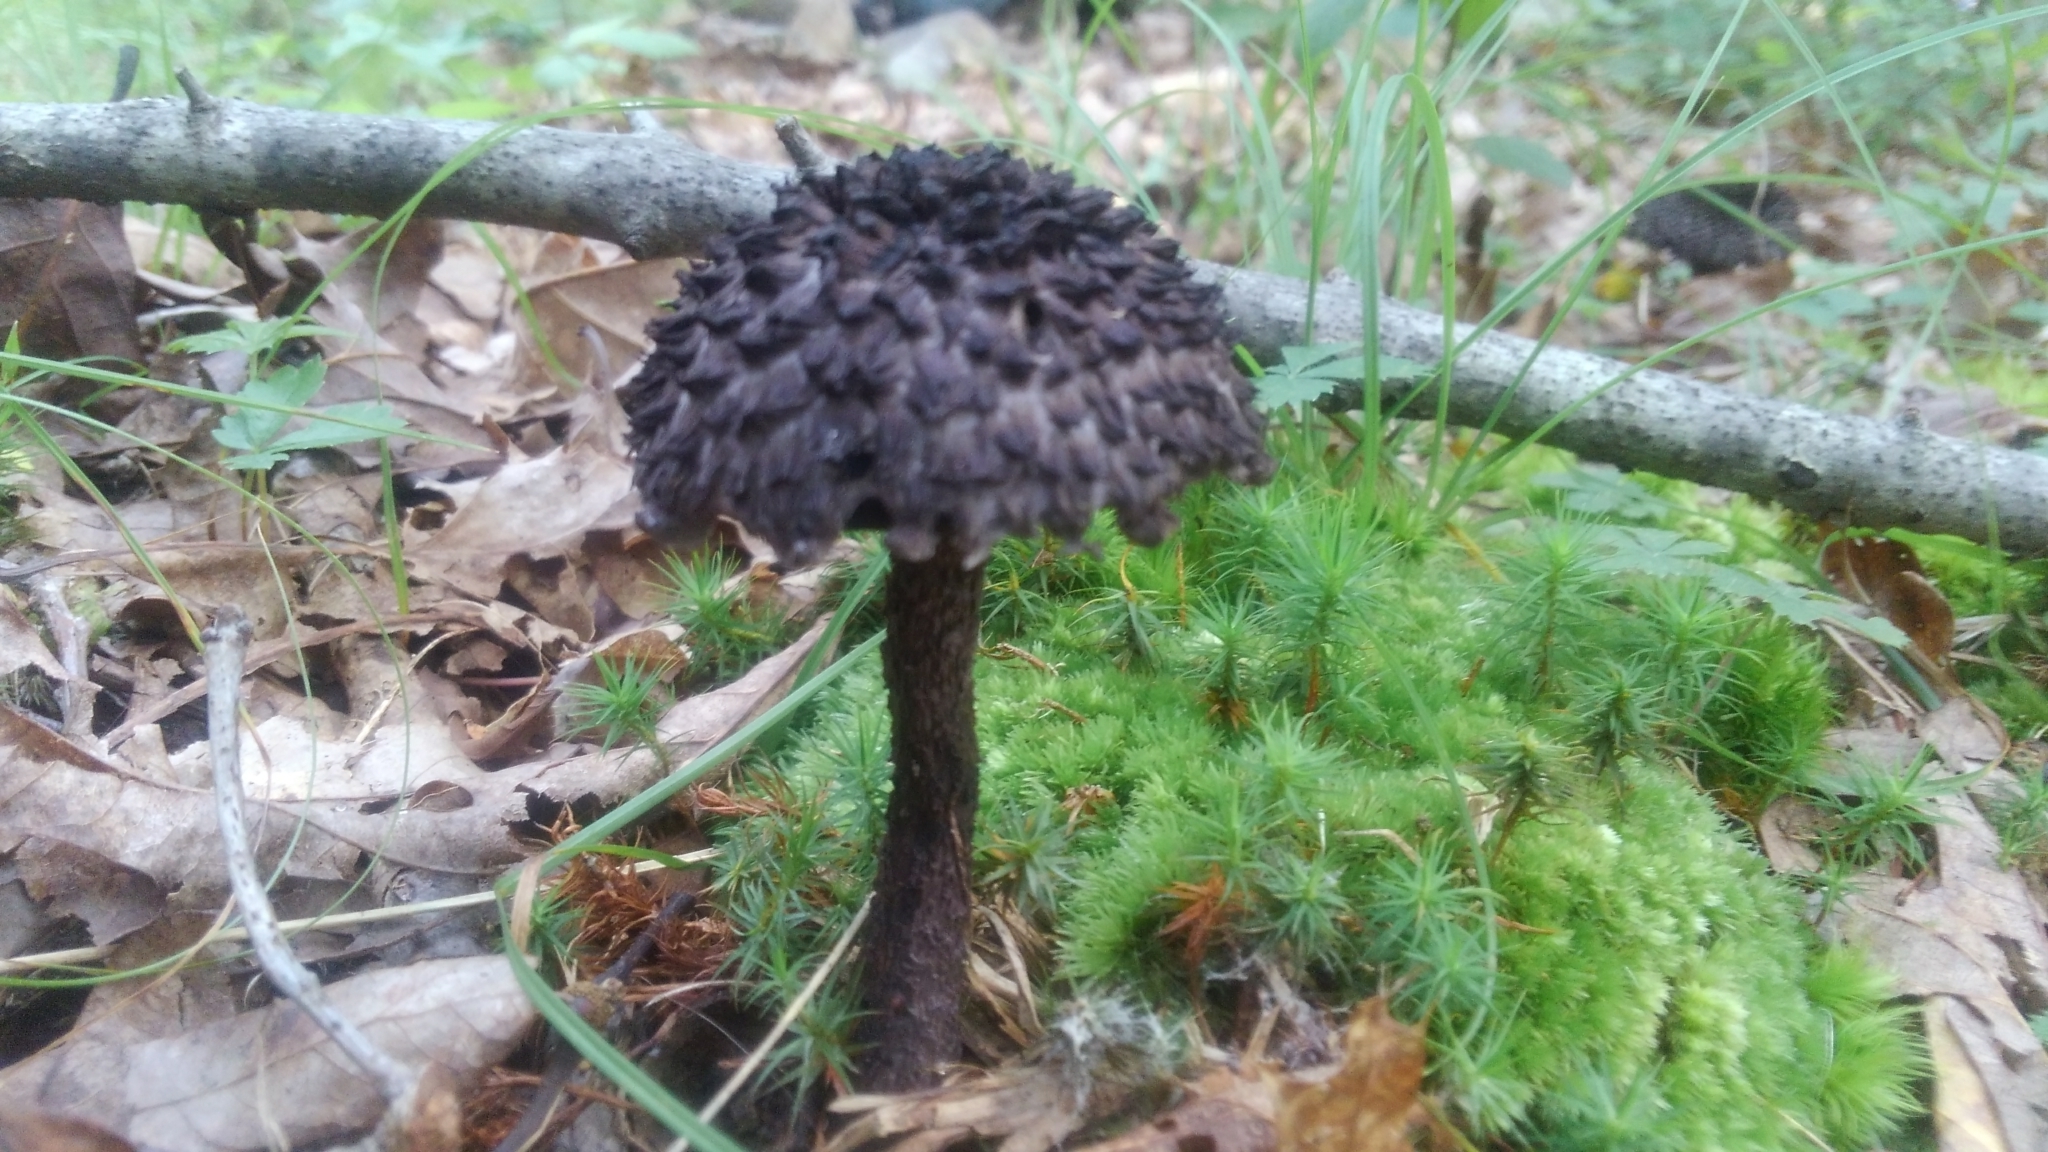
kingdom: Fungi
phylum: Basidiomycota
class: Agaricomycetes
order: Boletales
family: Boletaceae
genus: Strobilomyces
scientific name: Strobilomyces strobilaceus
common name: Old man of the woods
